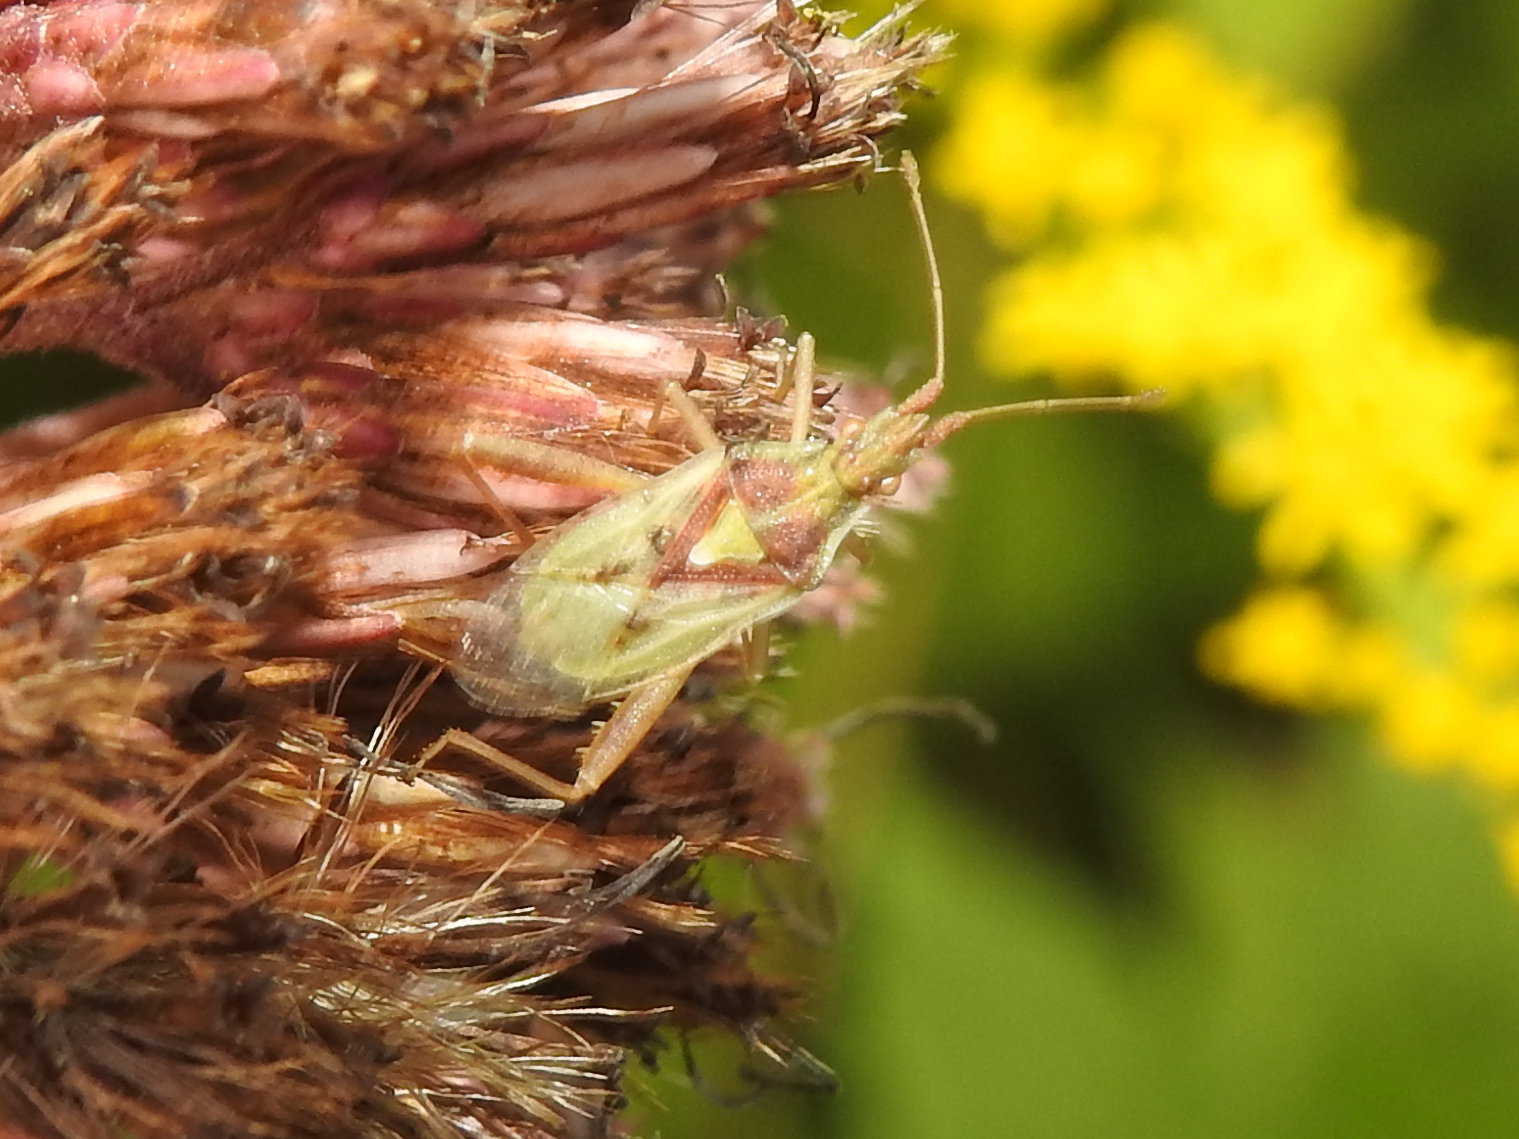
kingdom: Animalia
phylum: Arthropoda
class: Insecta
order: Hemiptera
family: Rhopalidae
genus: Harmostes
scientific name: Harmostes reflexulus
